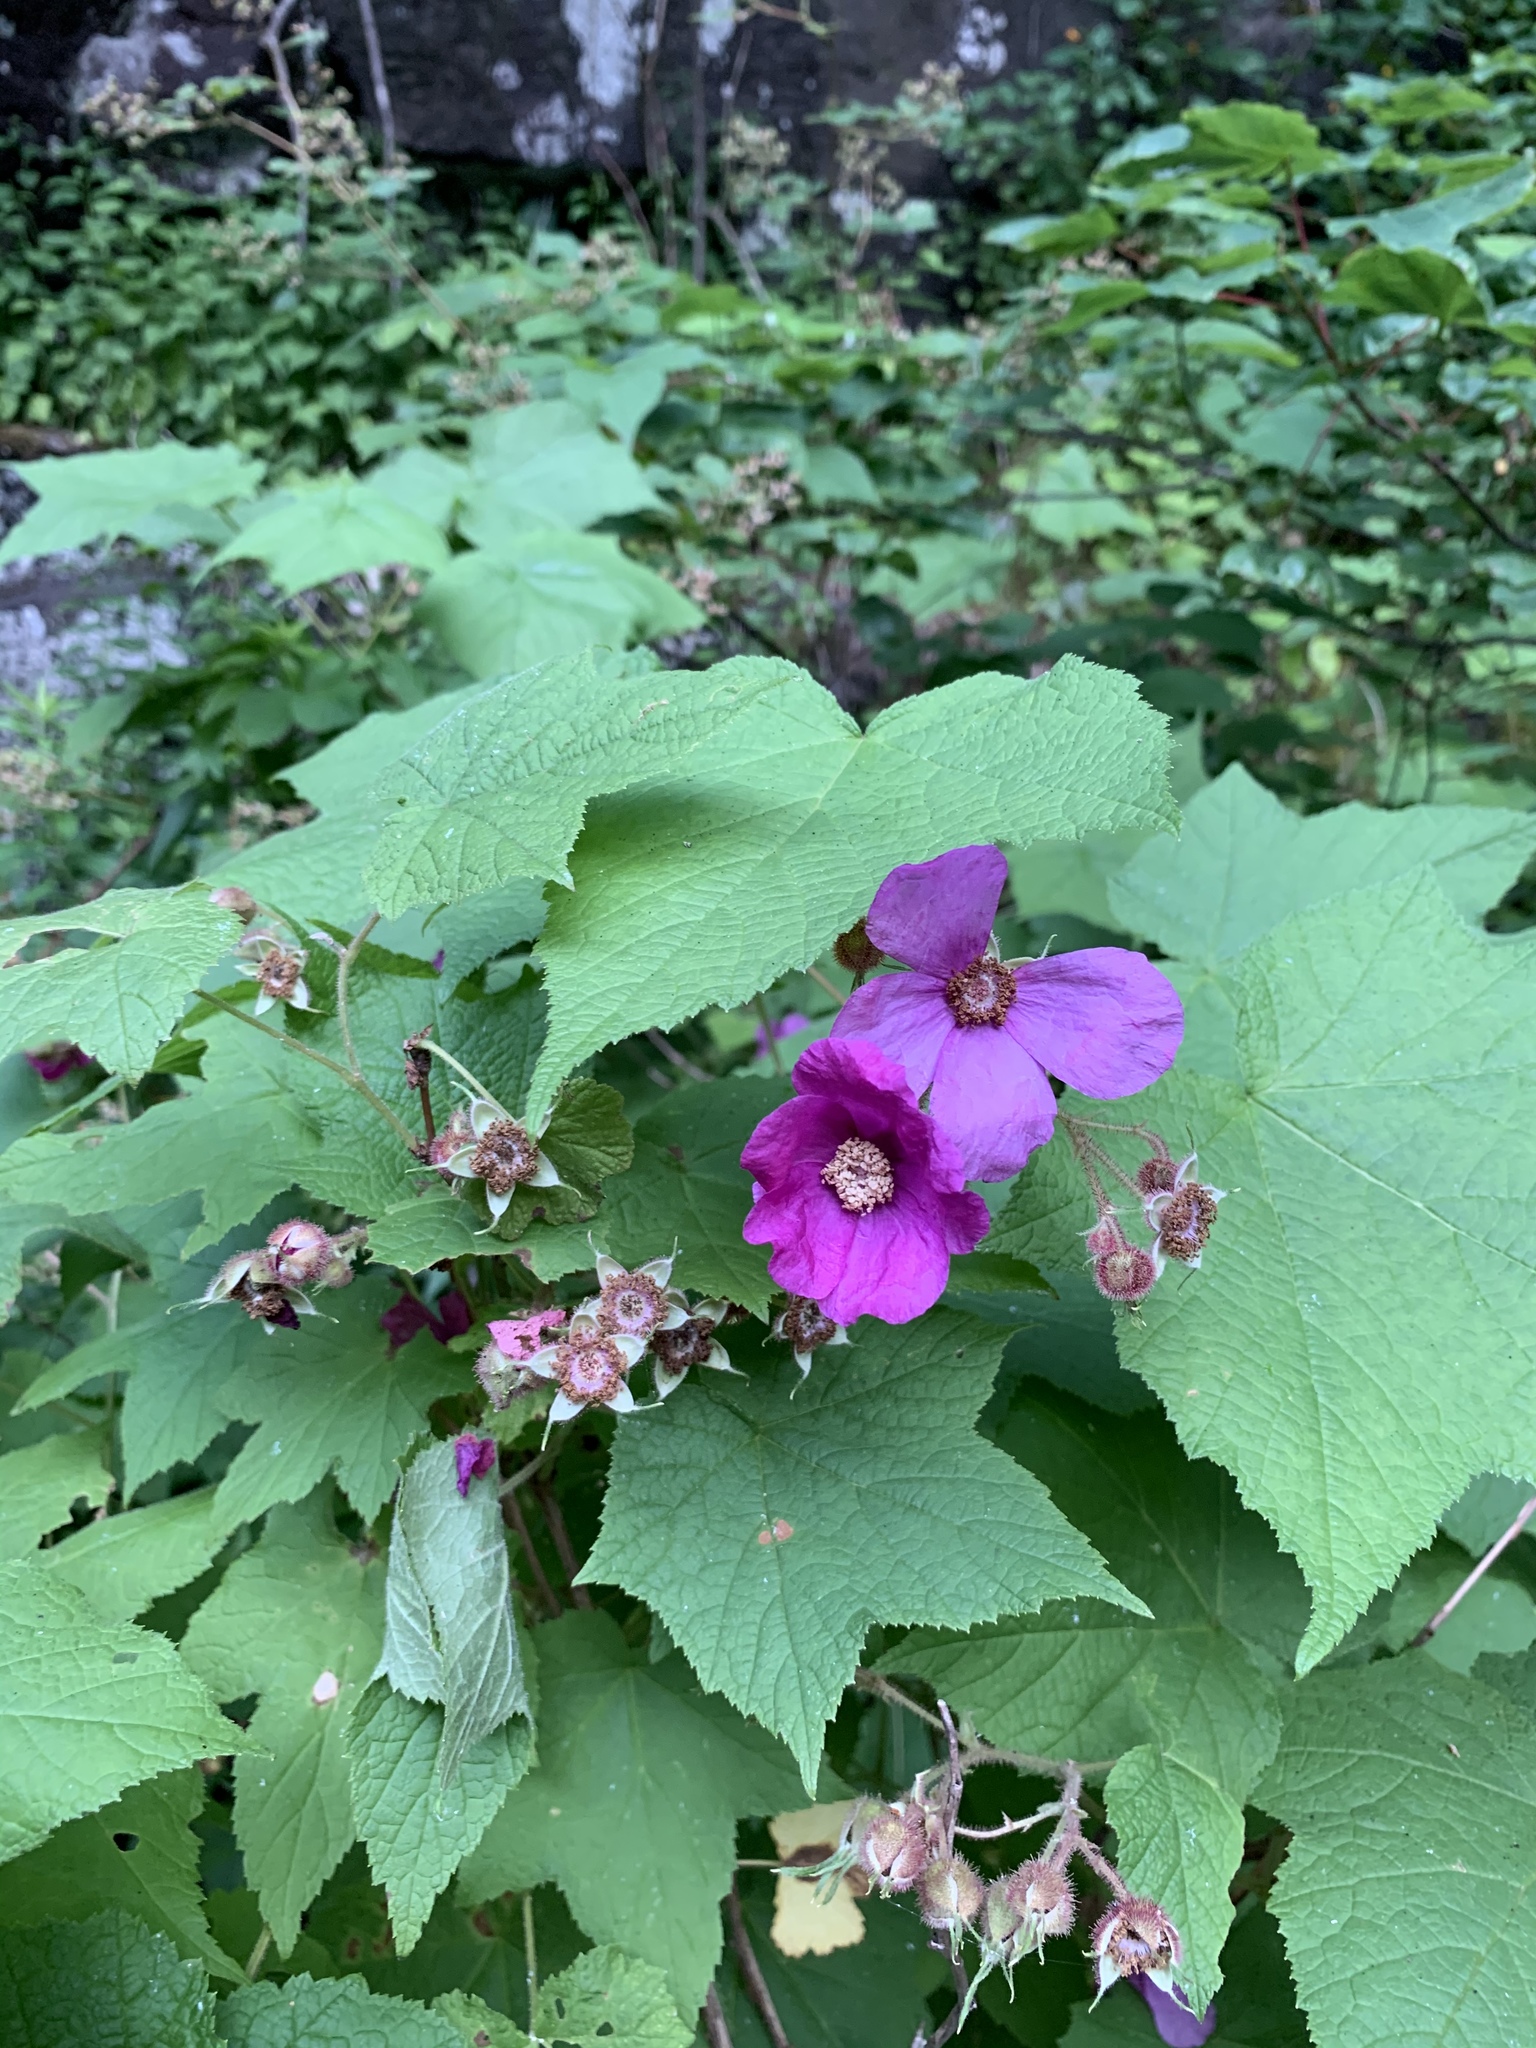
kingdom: Plantae
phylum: Tracheophyta
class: Magnoliopsida
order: Rosales
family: Rosaceae
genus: Rubus
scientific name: Rubus odoratus
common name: Purple-flowered raspberry
